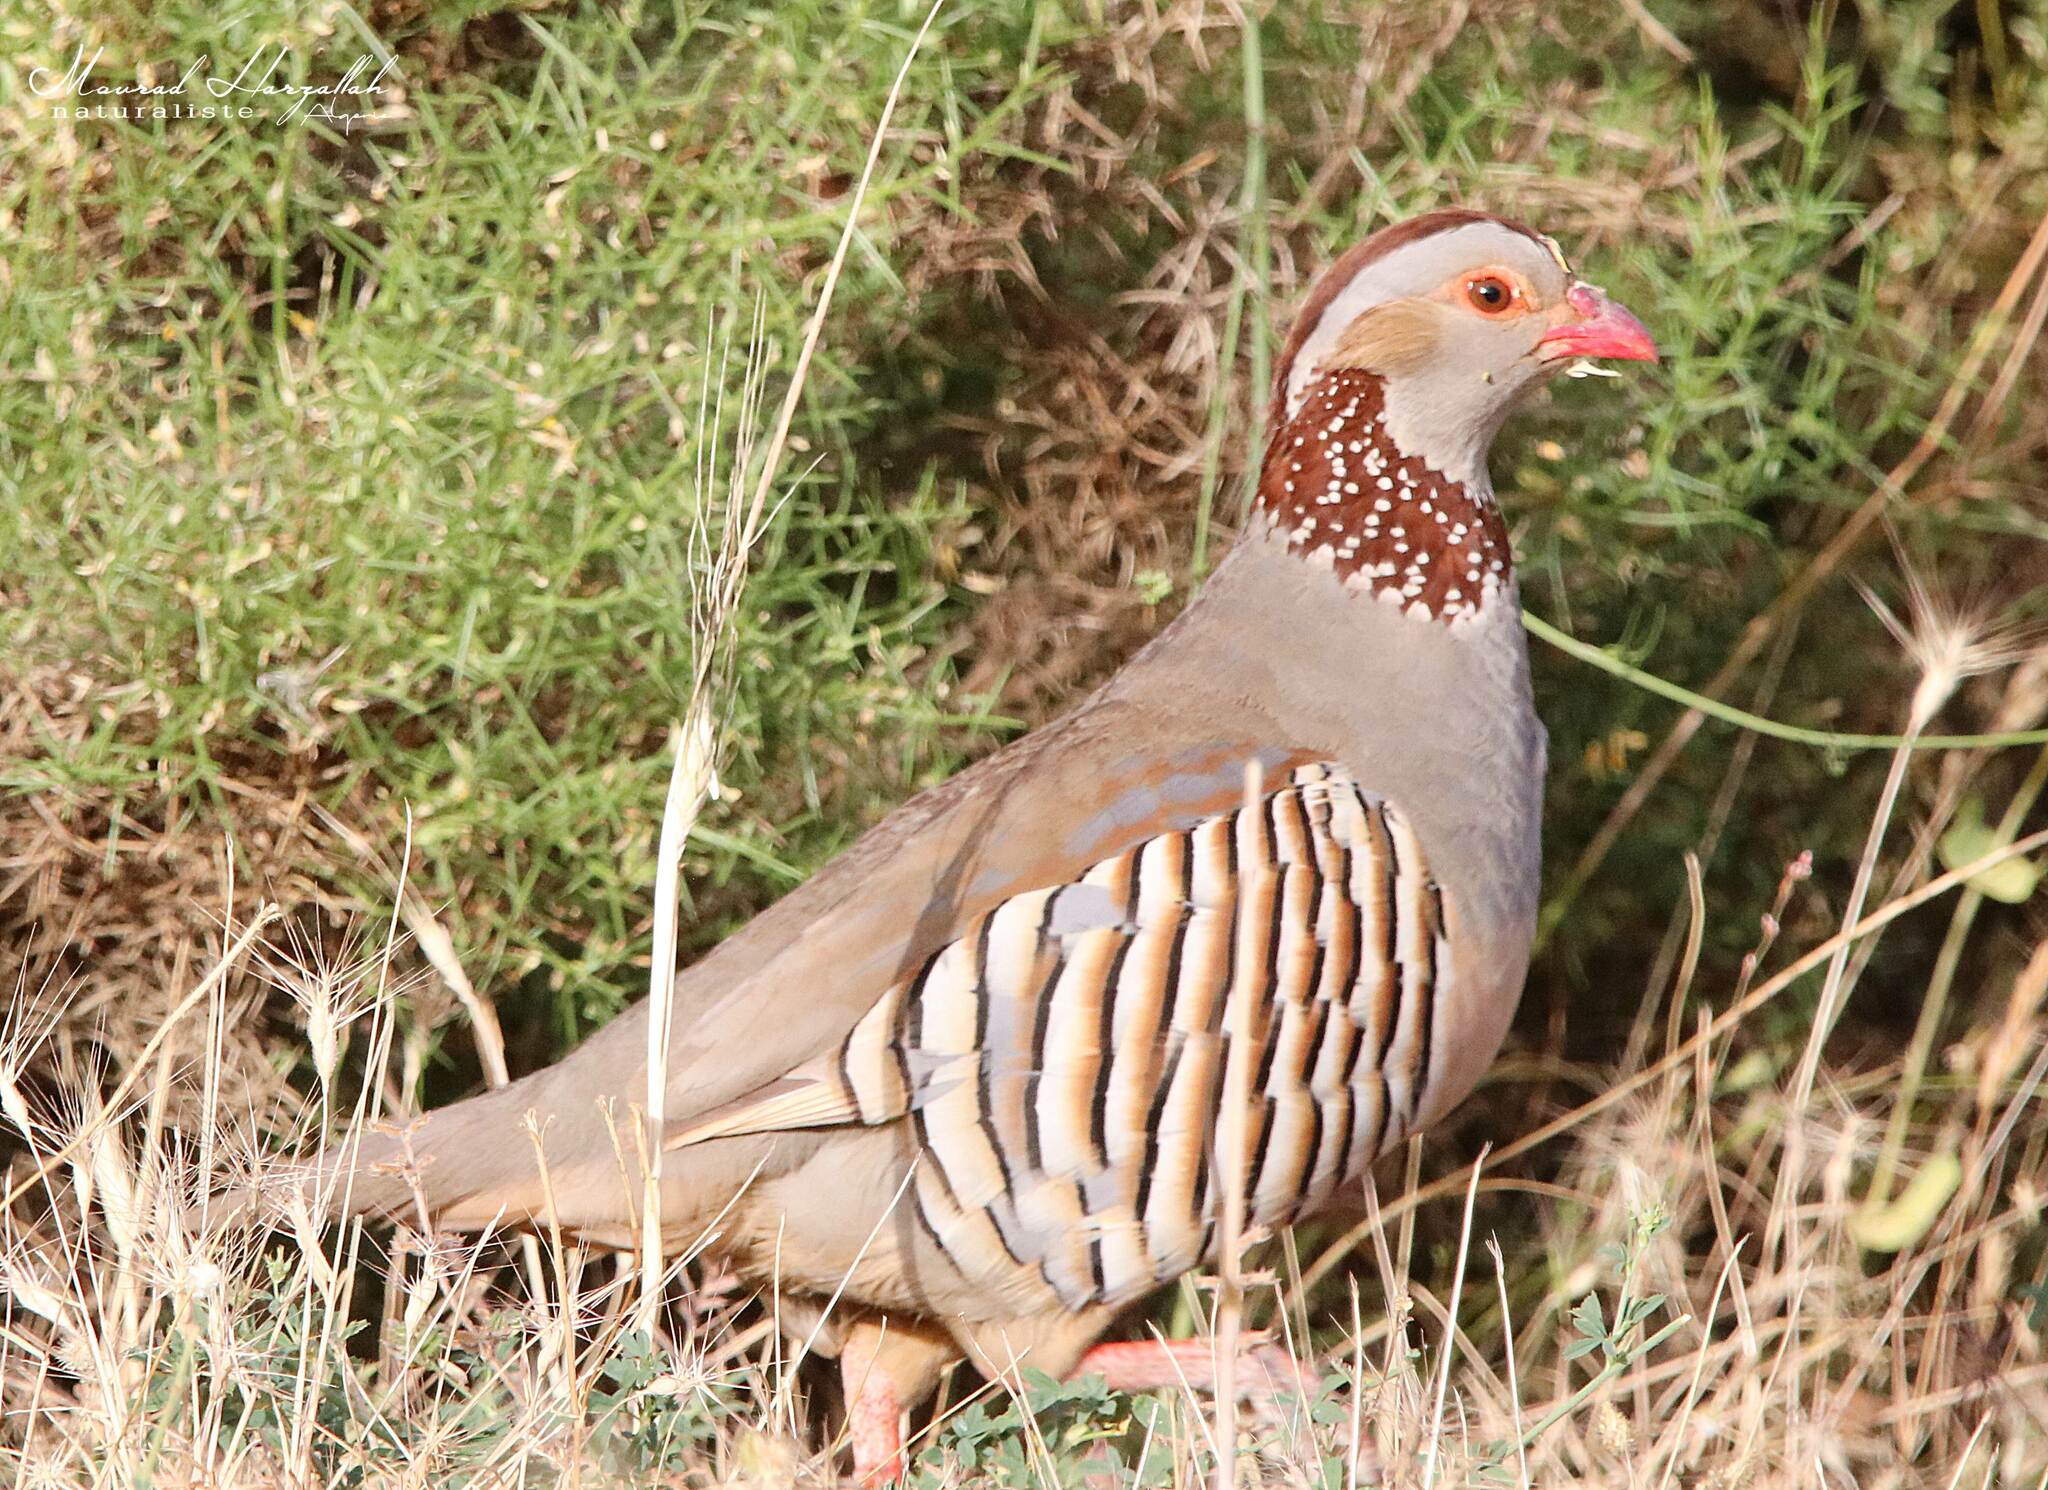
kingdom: Animalia
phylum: Chordata
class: Aves
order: Galliformes
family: Phasianidae
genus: Alectoris
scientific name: Alectoris barbara
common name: Barbary partridge
